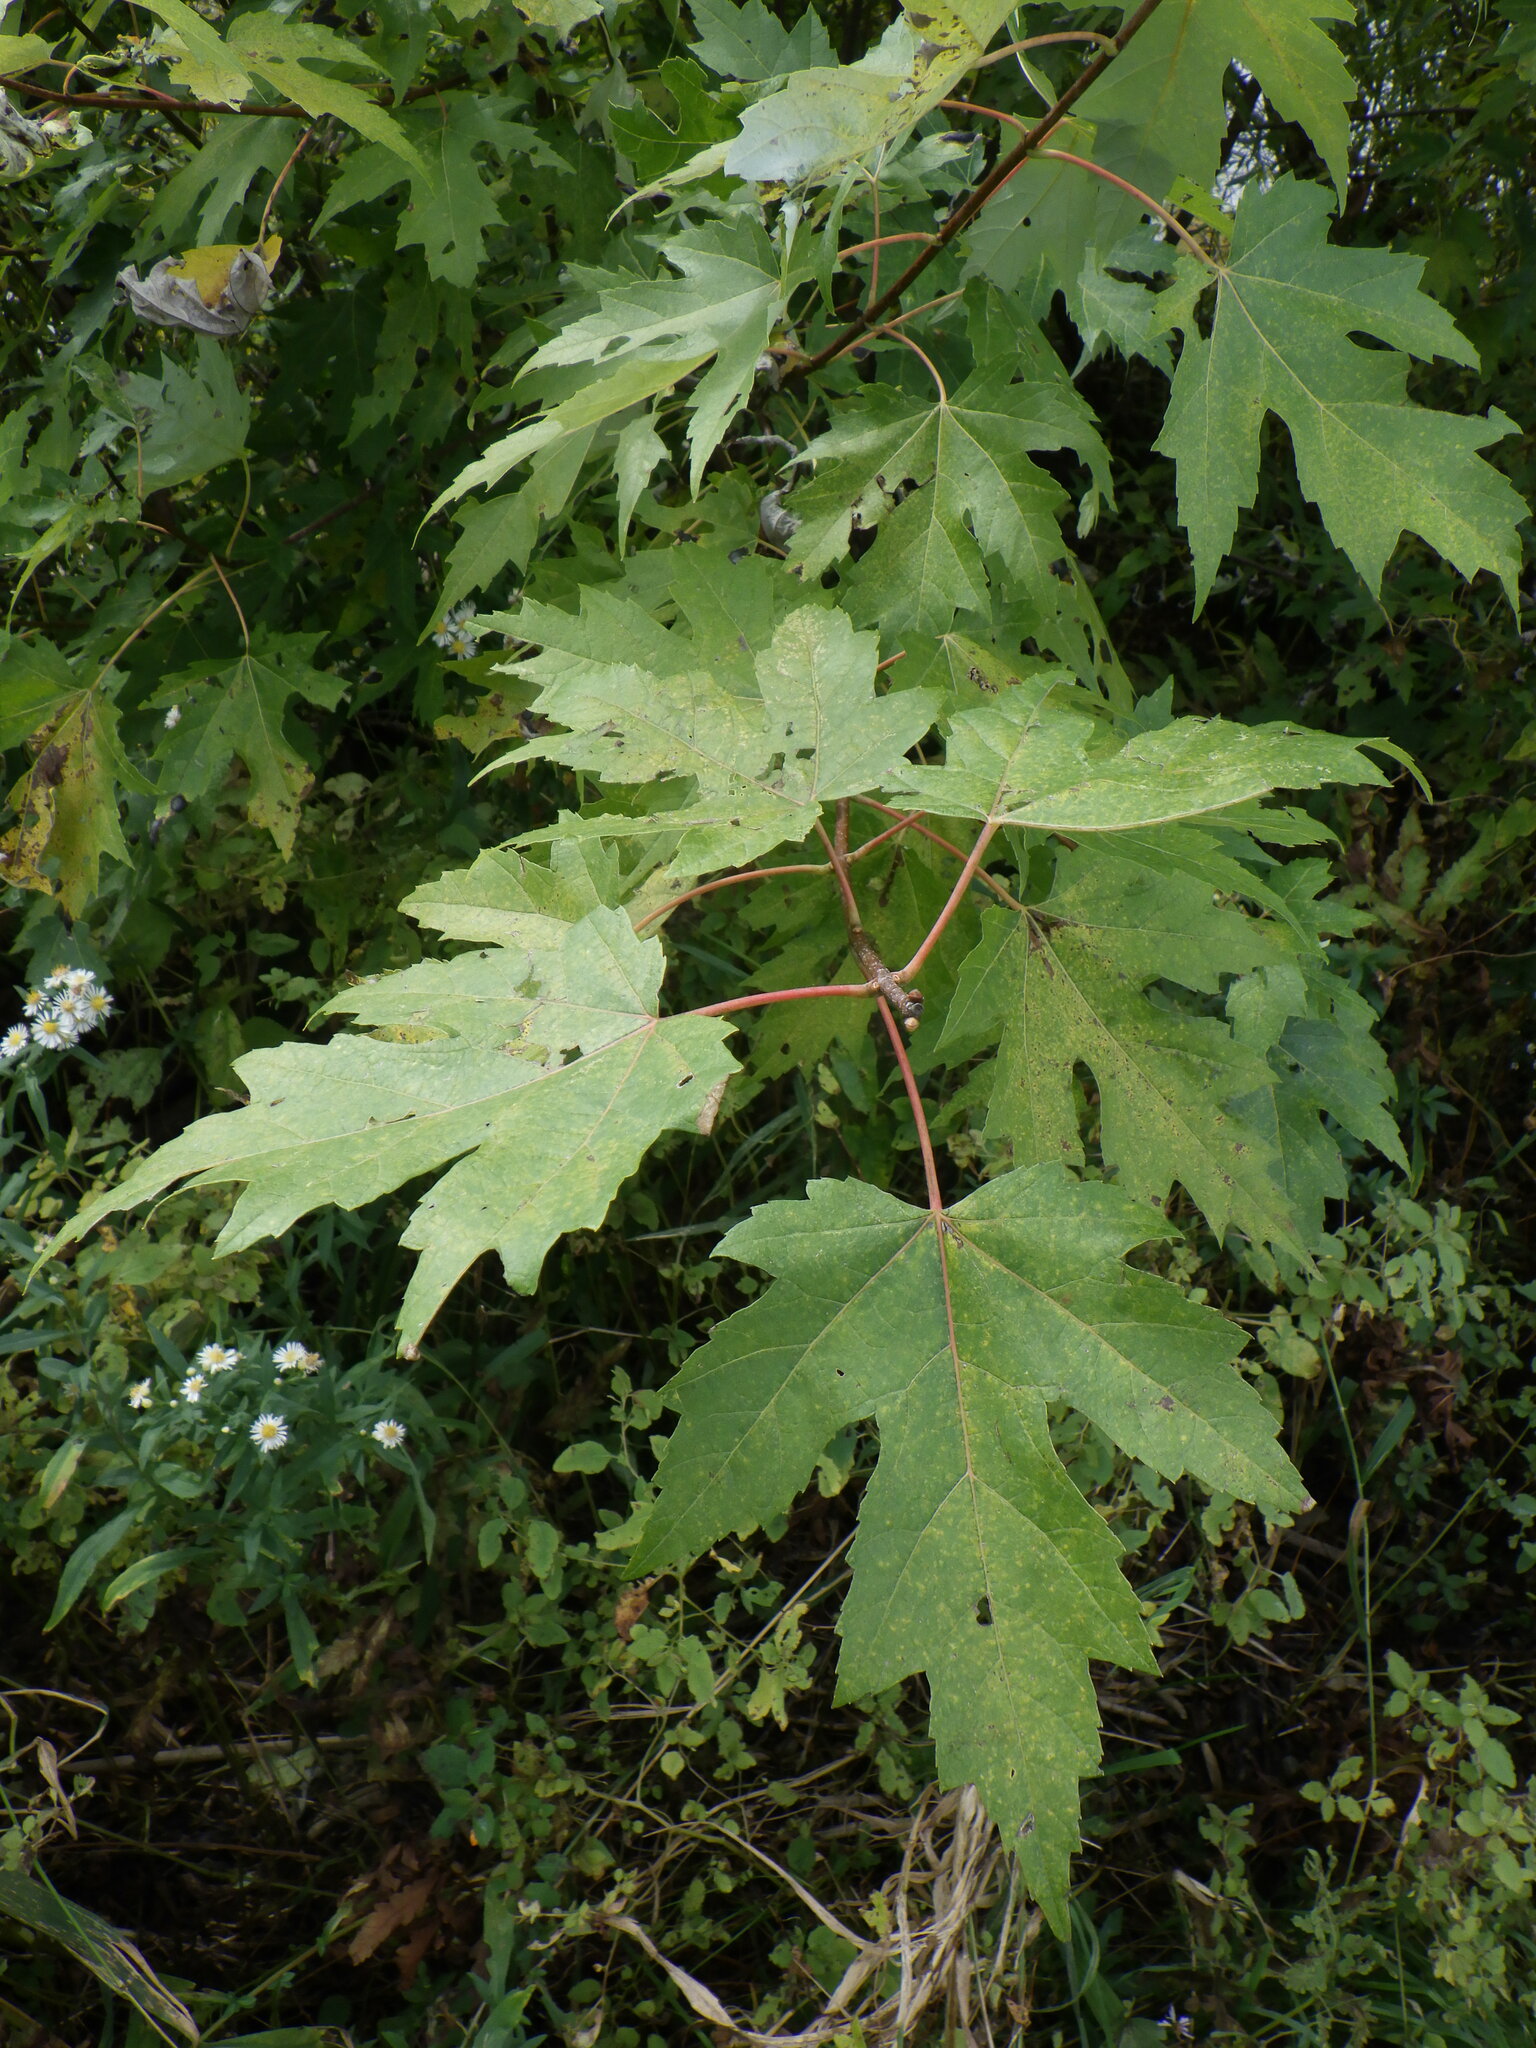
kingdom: Plantae
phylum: Tracheophyta
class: Magnoliopsida
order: Sapindales
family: Sapindaceae
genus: Acer
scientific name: Acer saccharinum
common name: Silver maple
